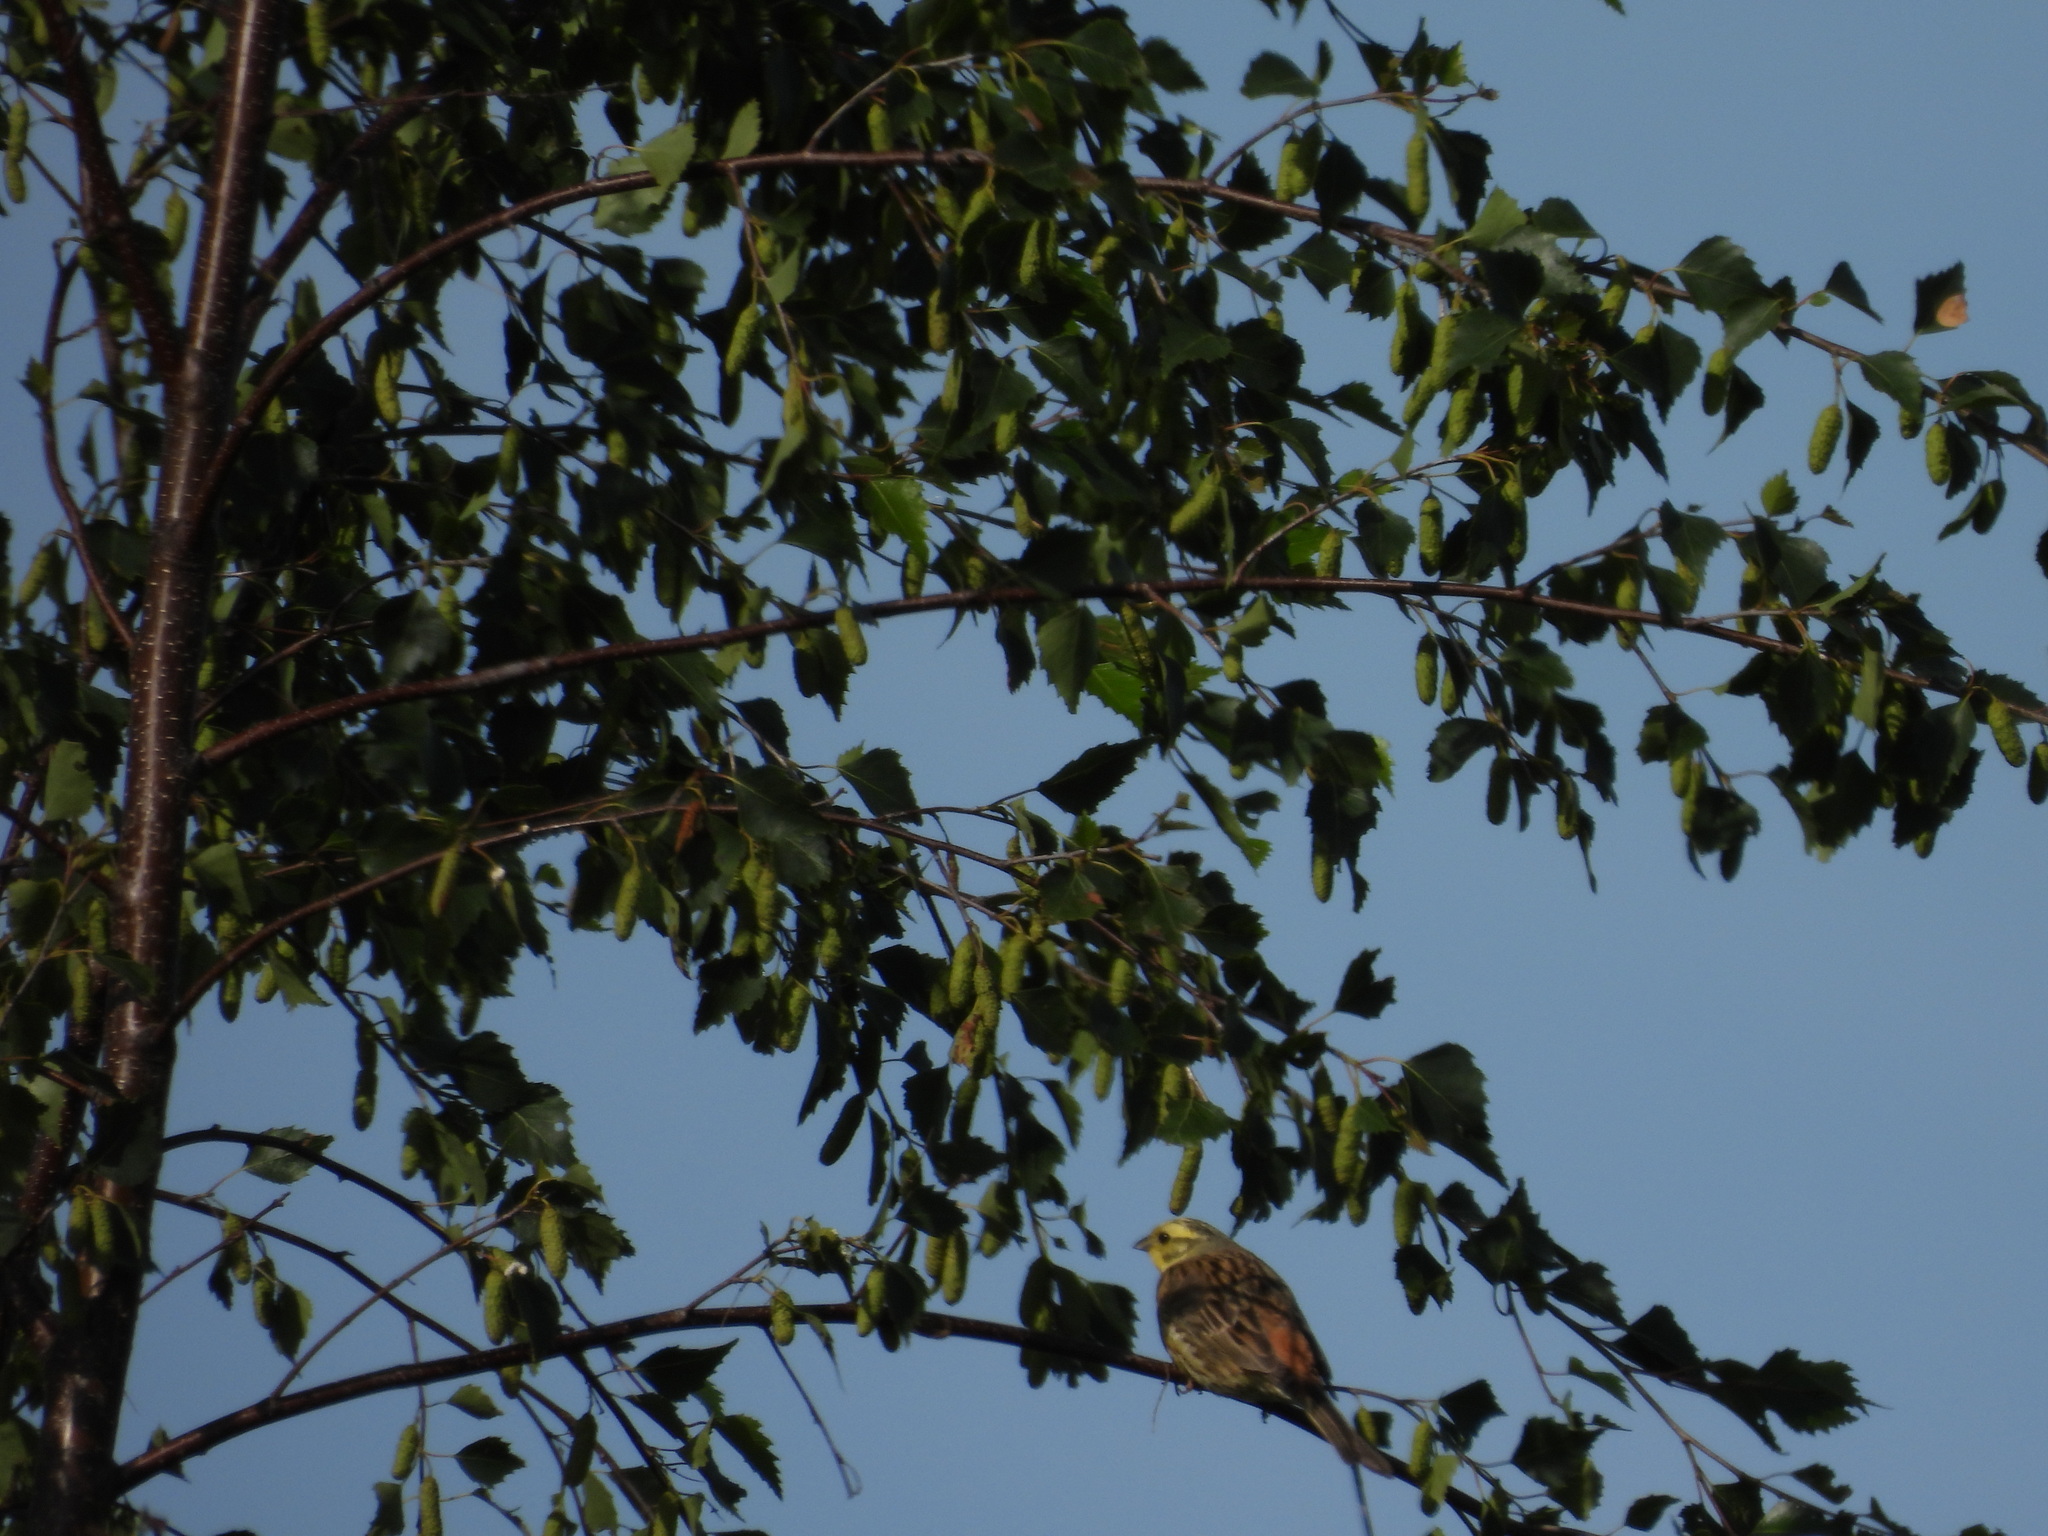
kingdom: Animalia
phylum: Chordata
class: Aves
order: Passeriformes
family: Emberizidae
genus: Emberiza
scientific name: Emberiza citrinella
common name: Yellowhammer
